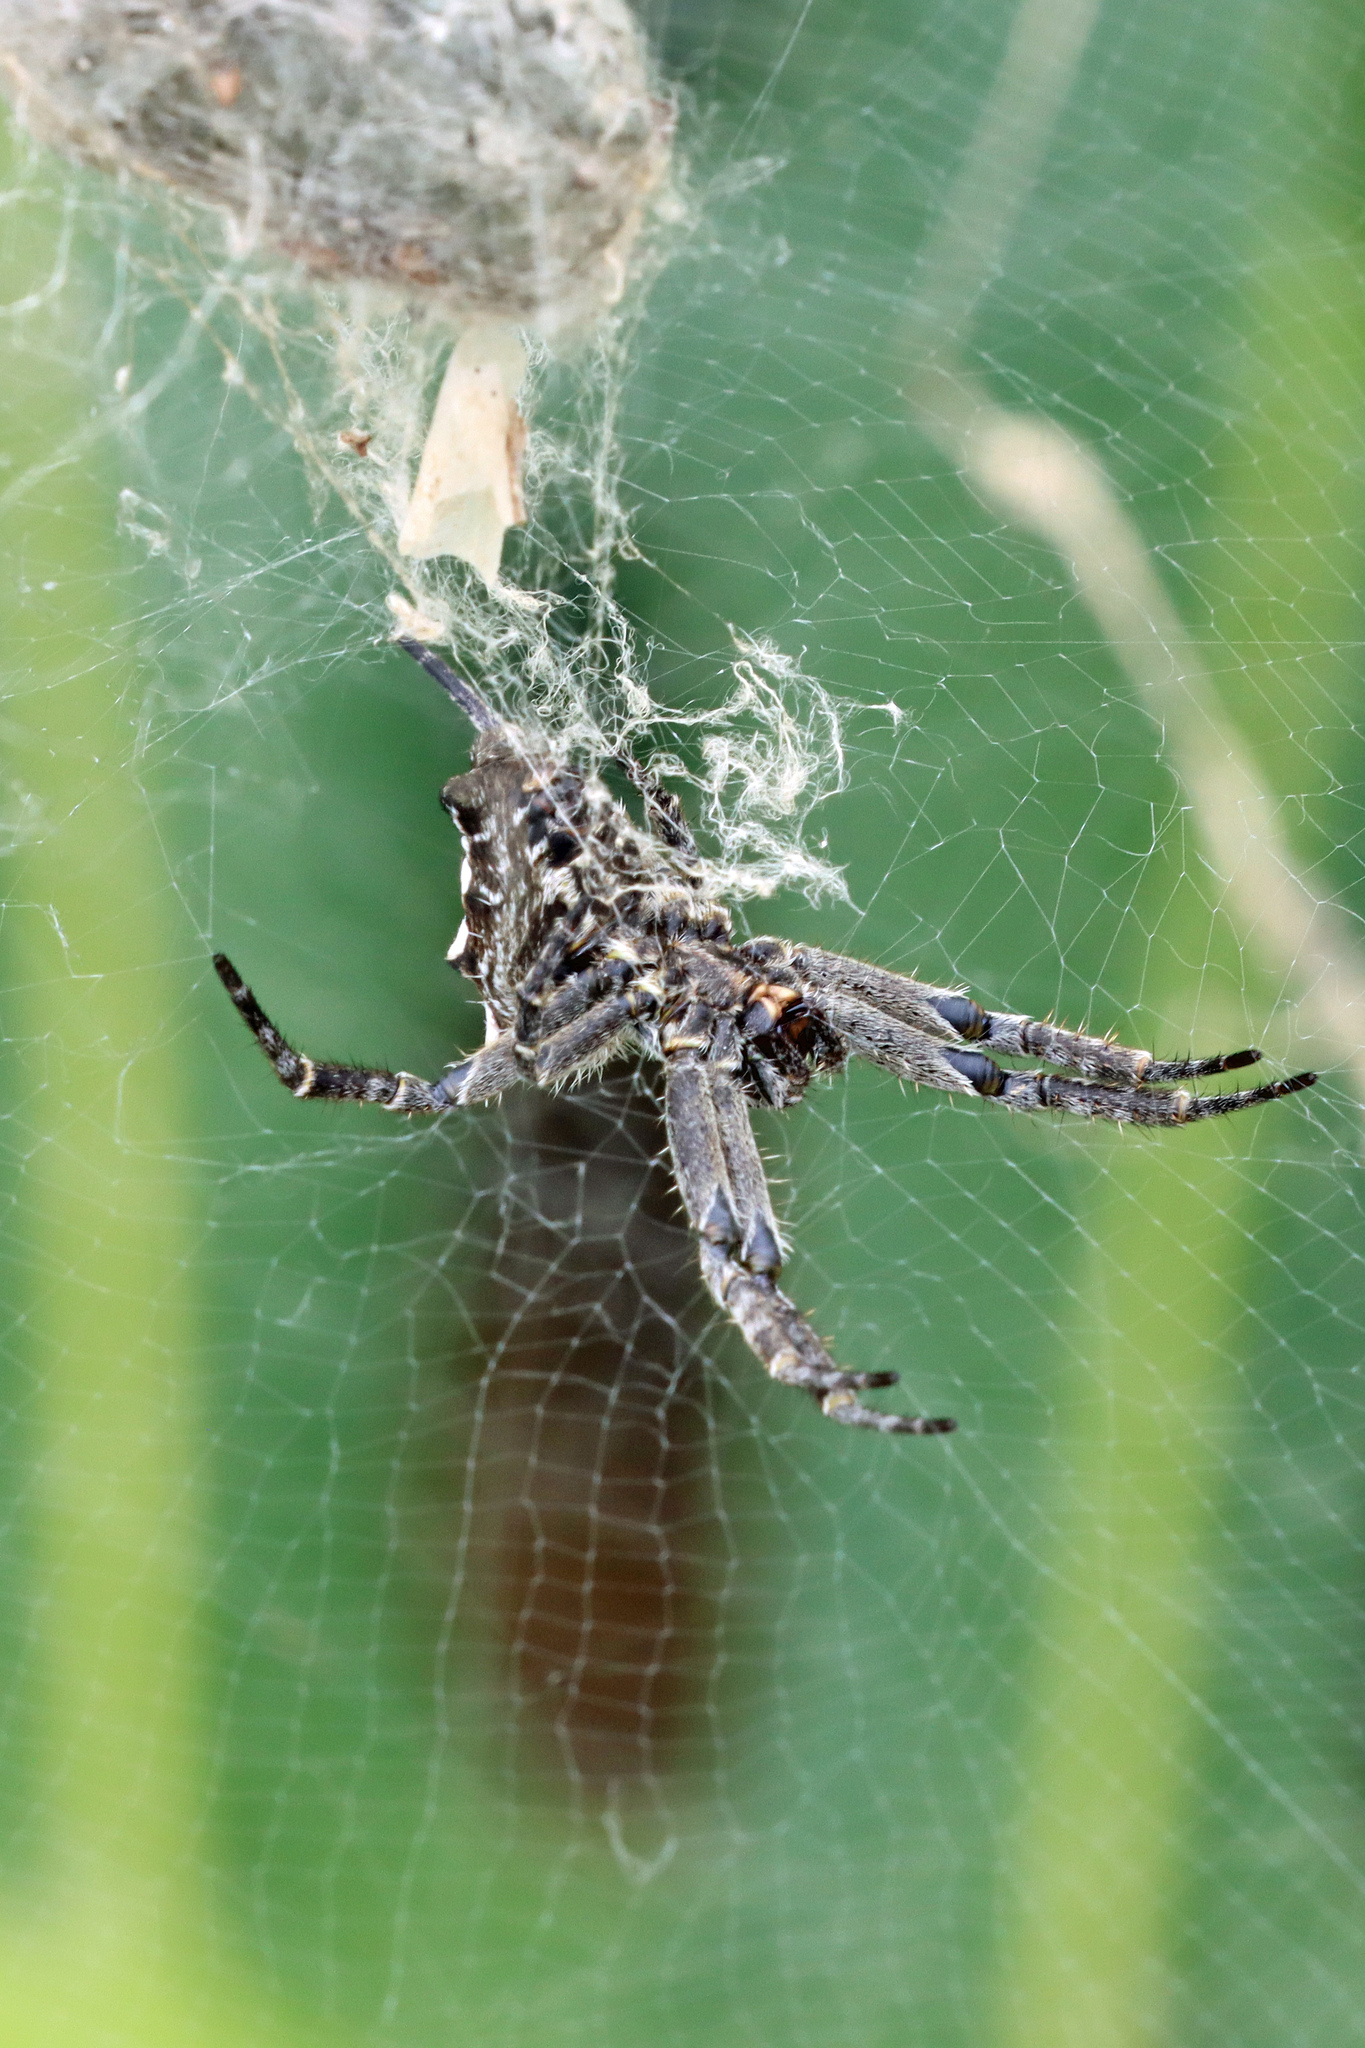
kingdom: Animalia
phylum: Arthropoda
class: Arachnida
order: Araneae
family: Araneidae
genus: Cyrtophora
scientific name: Cyrtophora citricola
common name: Orb weavers
